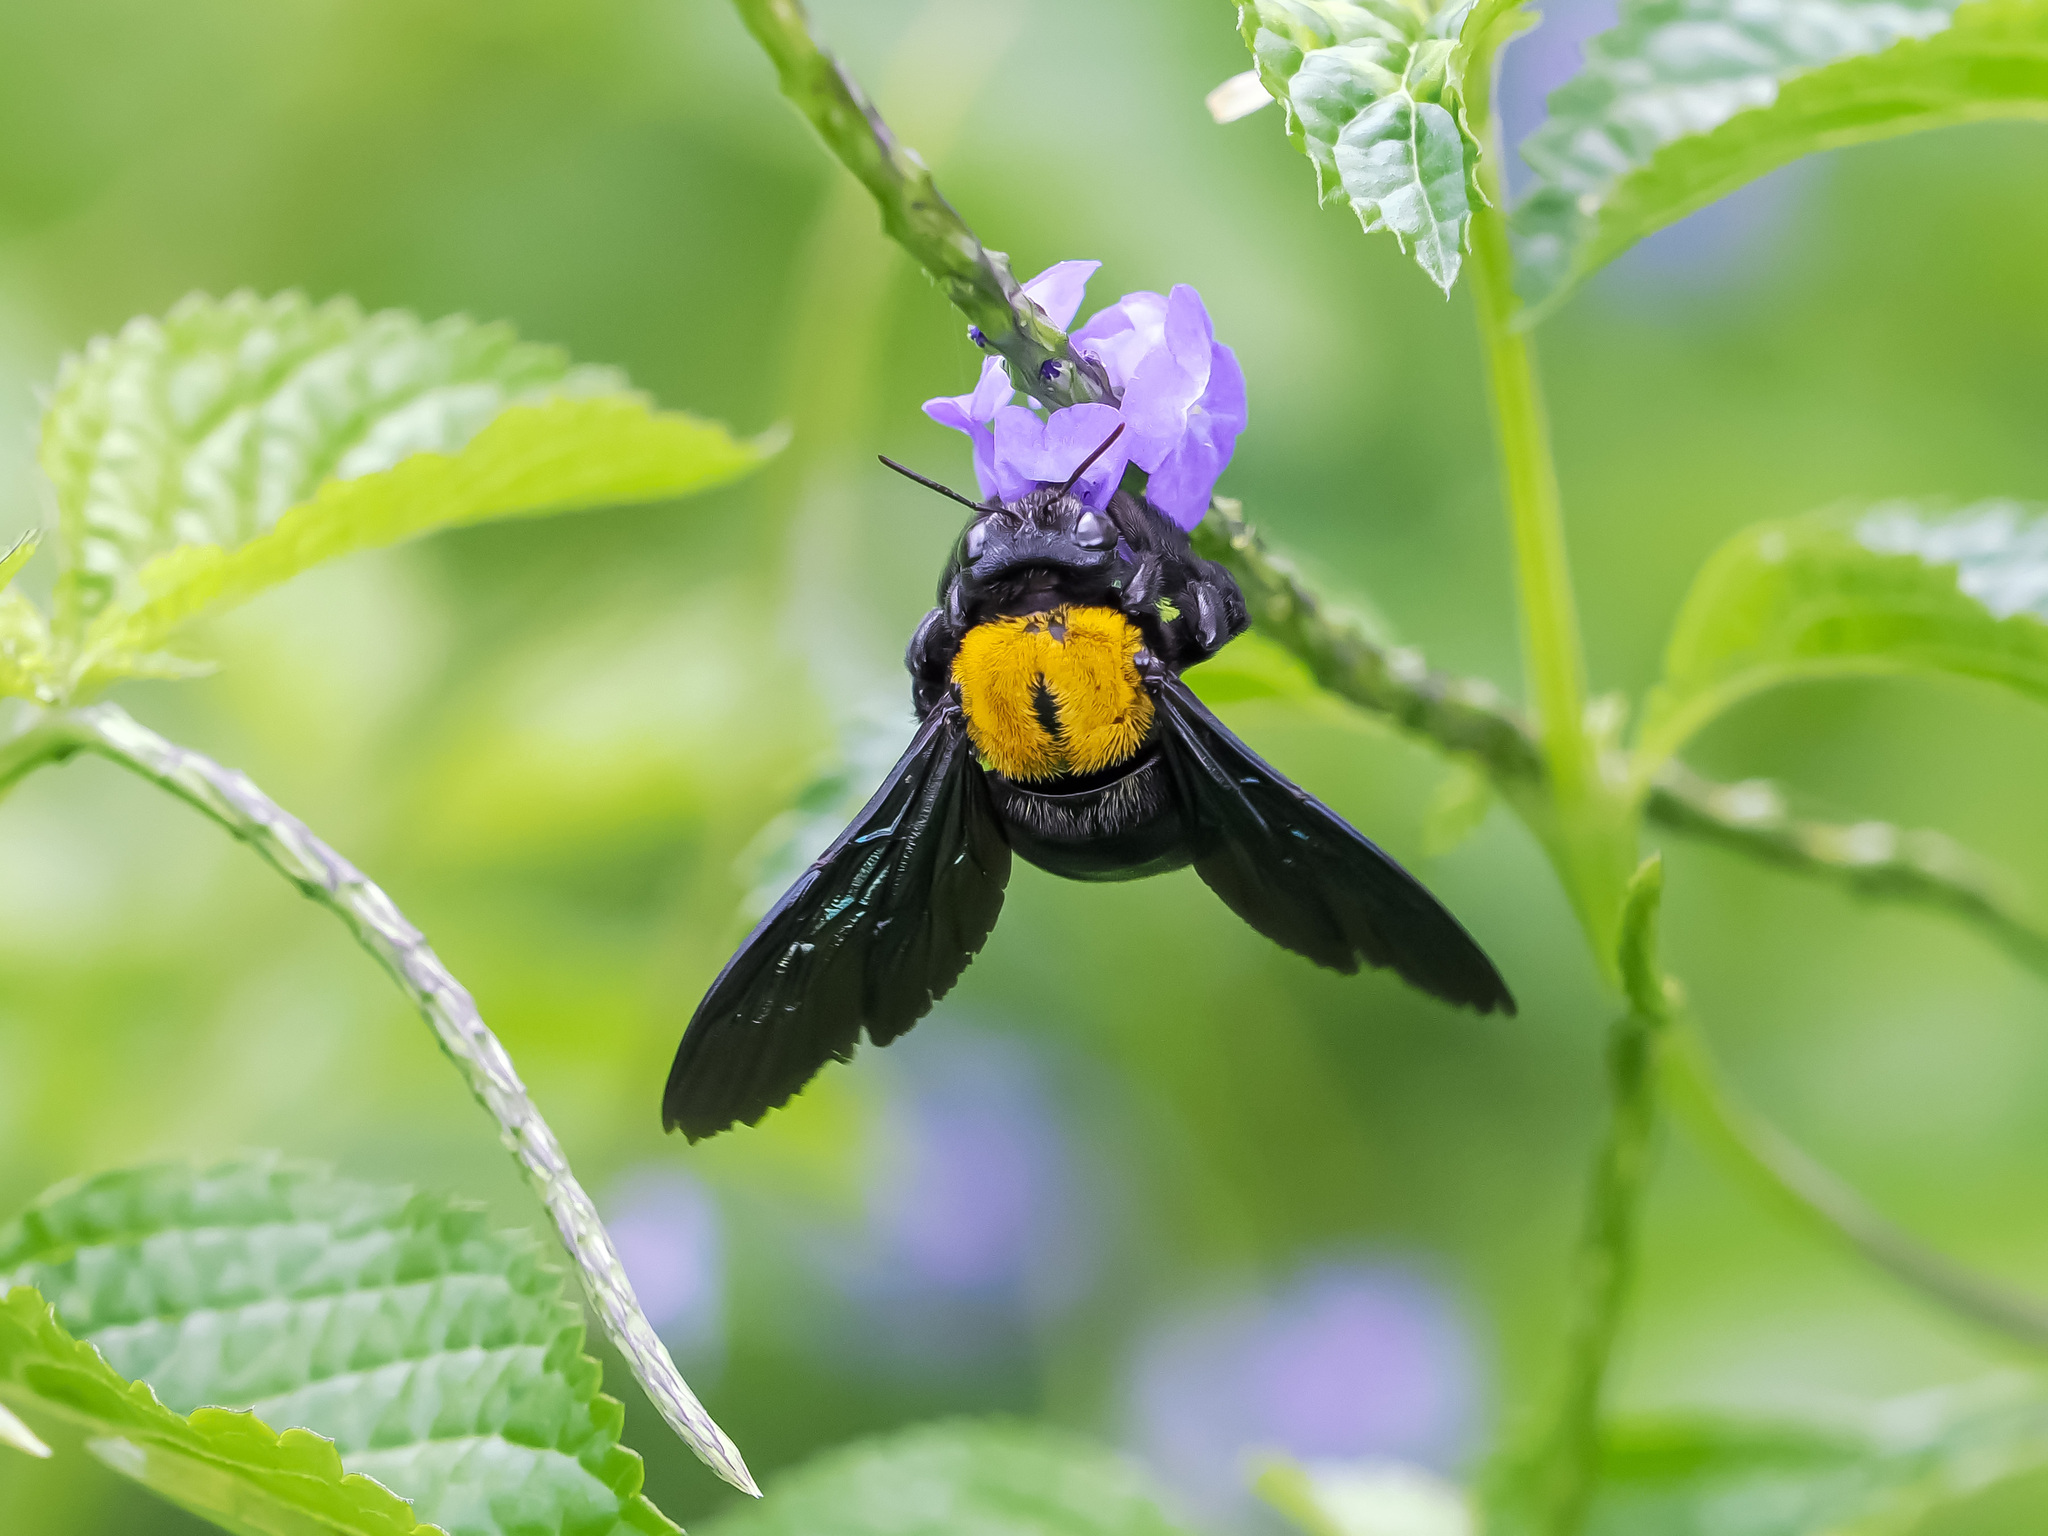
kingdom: Animalia
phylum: Arthropoda
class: Insecta
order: Hymenoptera
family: Apidae
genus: Xylocopa
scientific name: Xylocopa flavonigrescens
